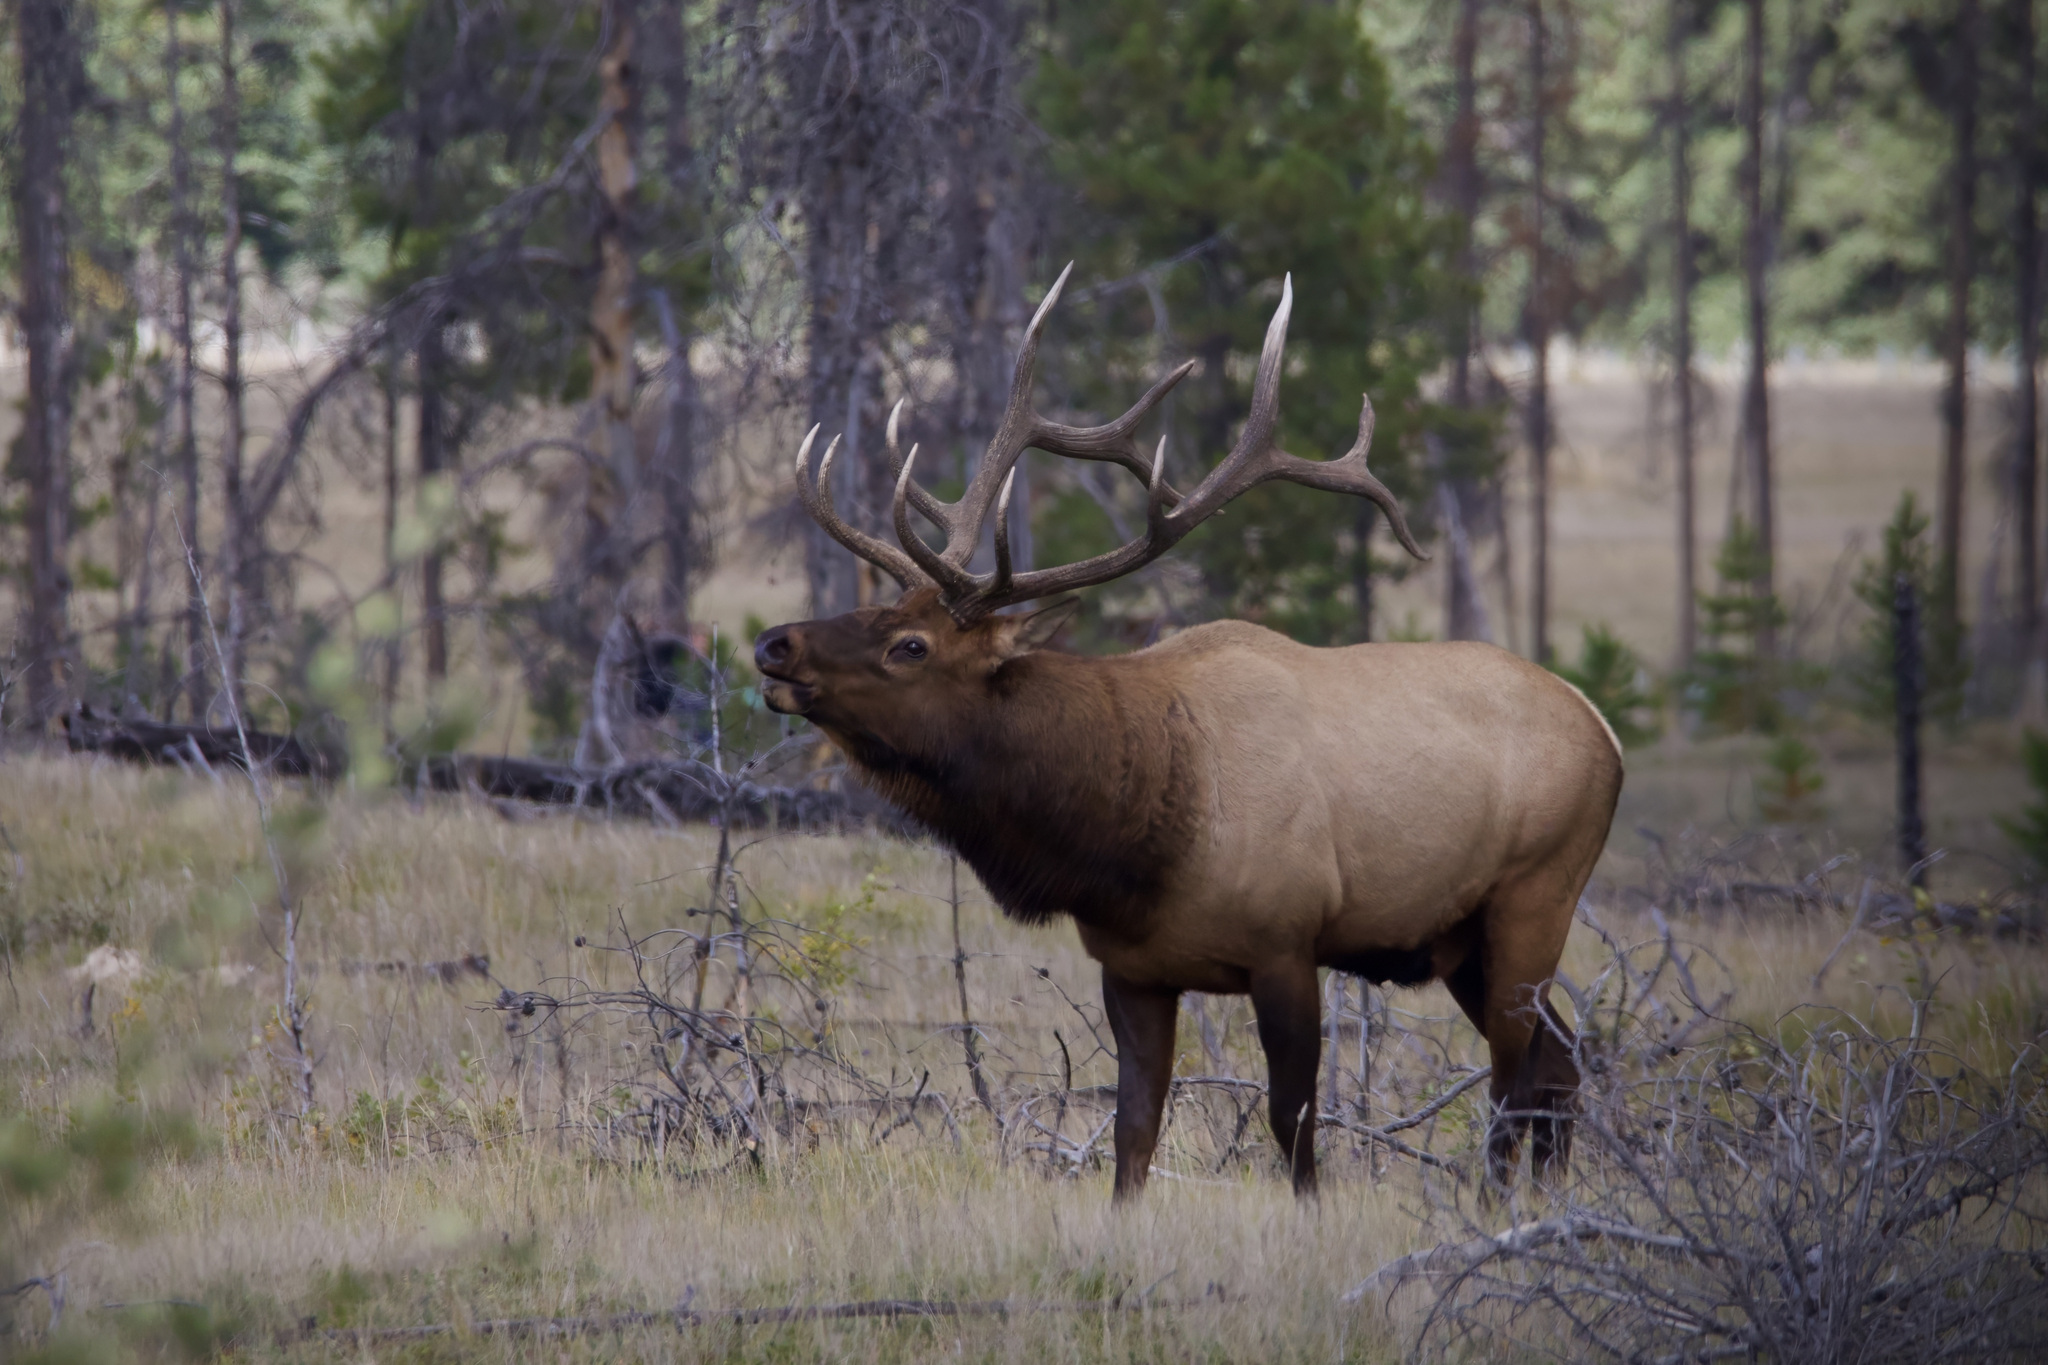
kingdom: Animalia
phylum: Chordata
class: Mammalia
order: Artiodactyla
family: Cervidae
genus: Cervus
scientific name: Cervus elaphus
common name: Red deer
